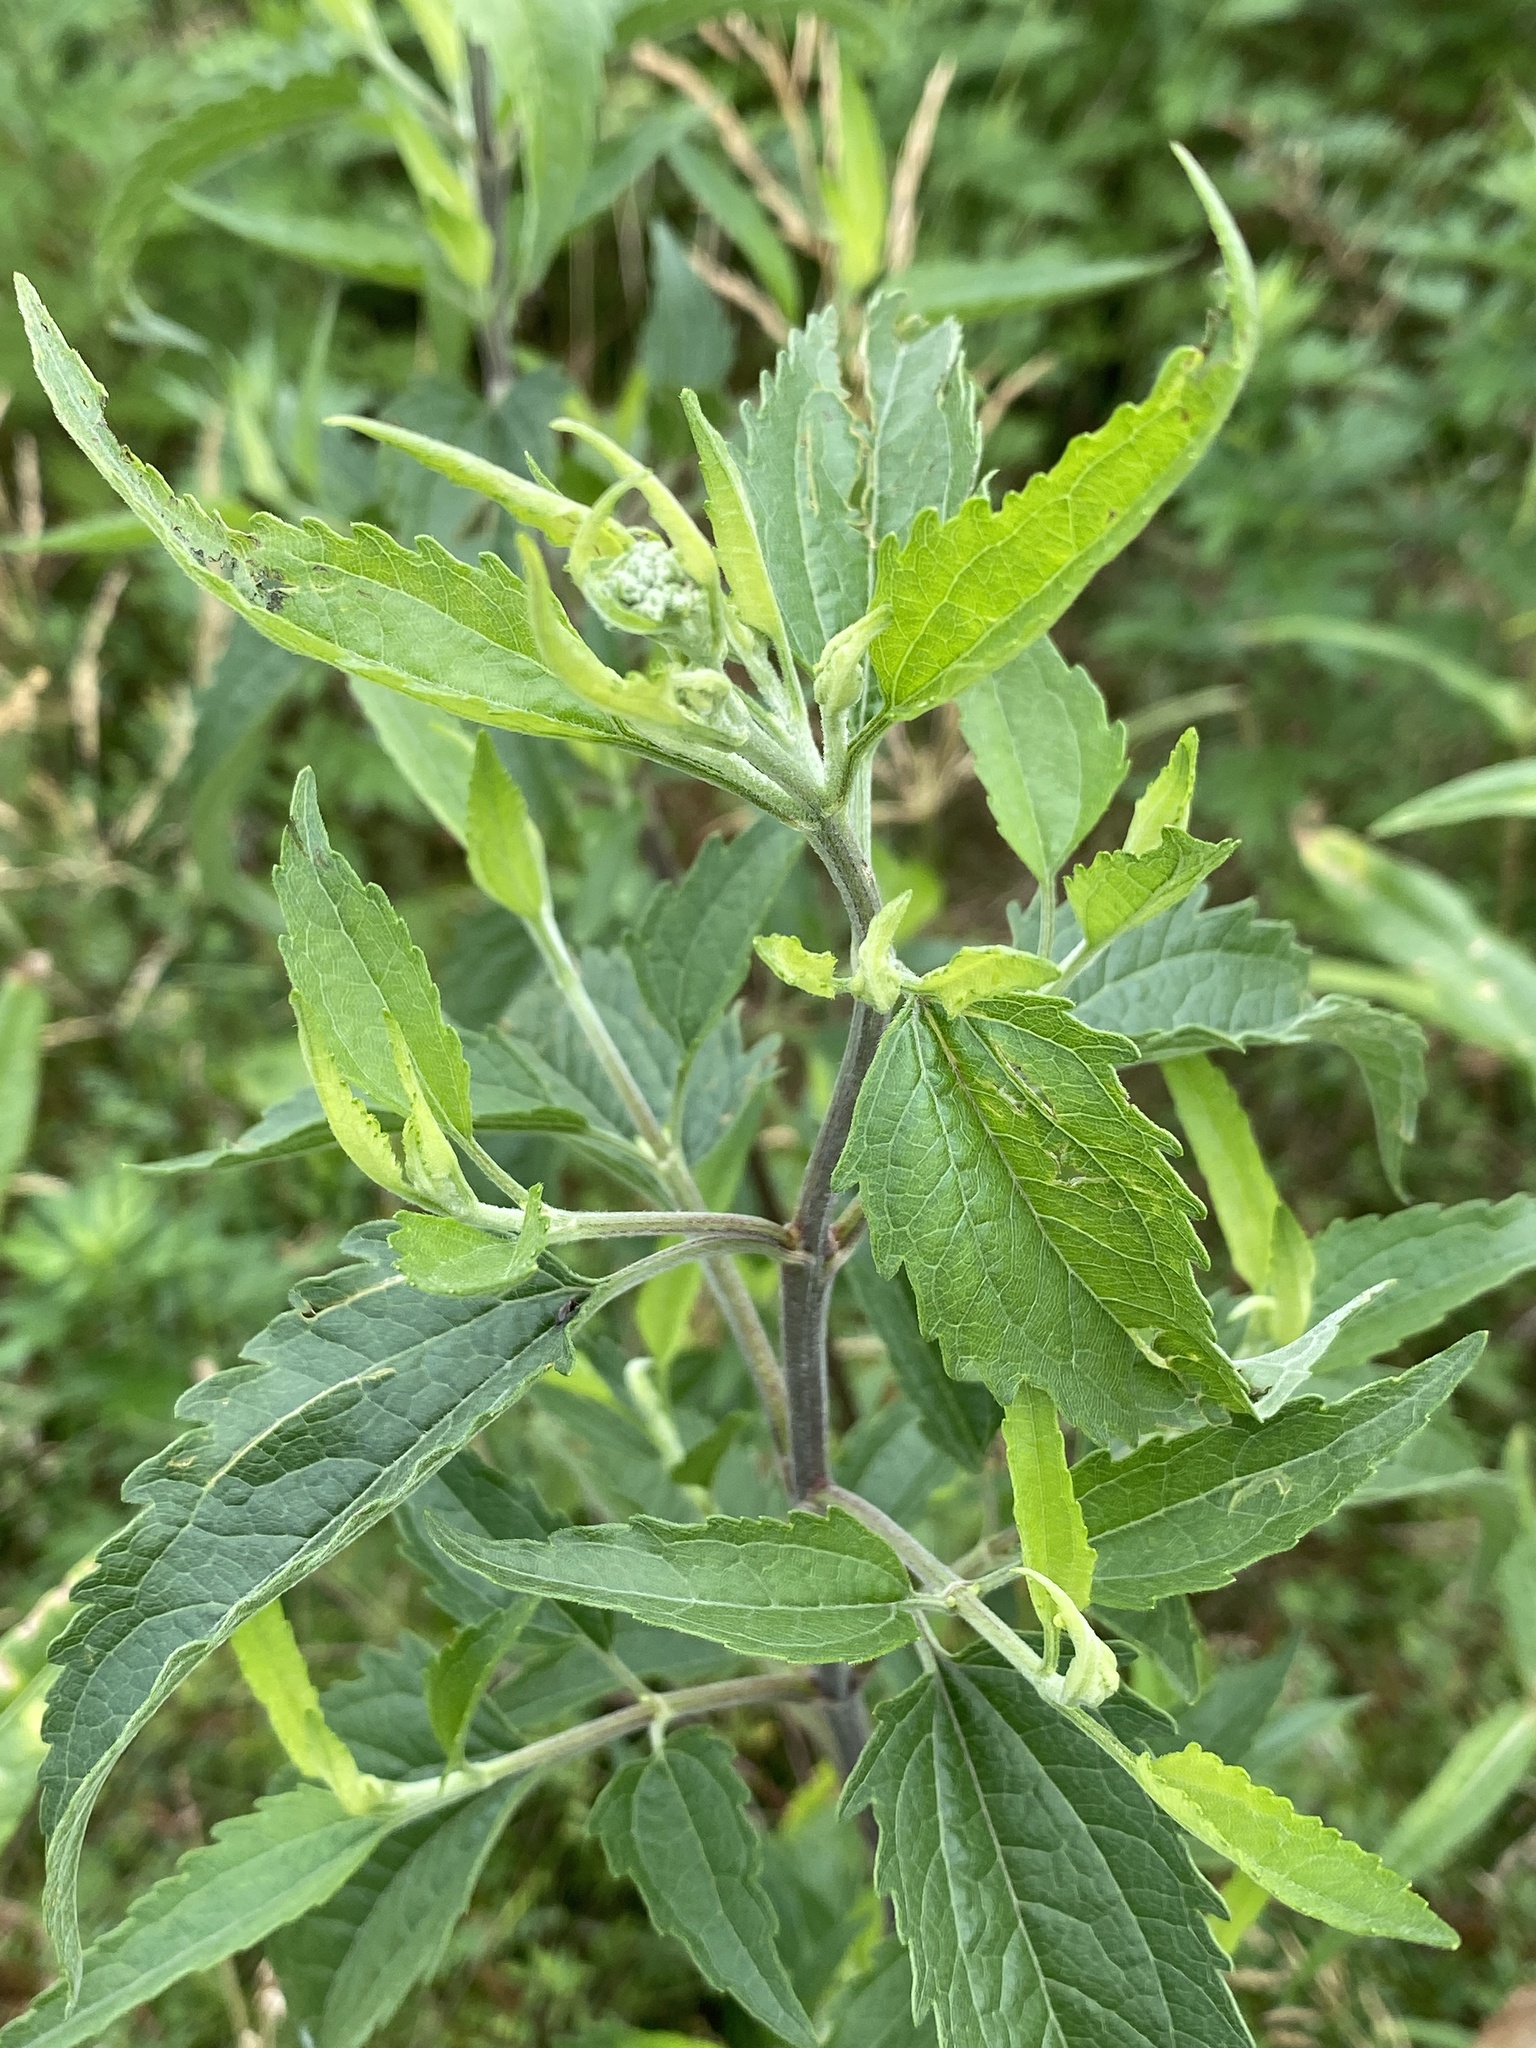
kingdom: Plantae
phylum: Tracheophyta
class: Magnoliopsida
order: Asterales
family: Asteraceae
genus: Eupatorium
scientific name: Eupatorium serotinum
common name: Late boneset
